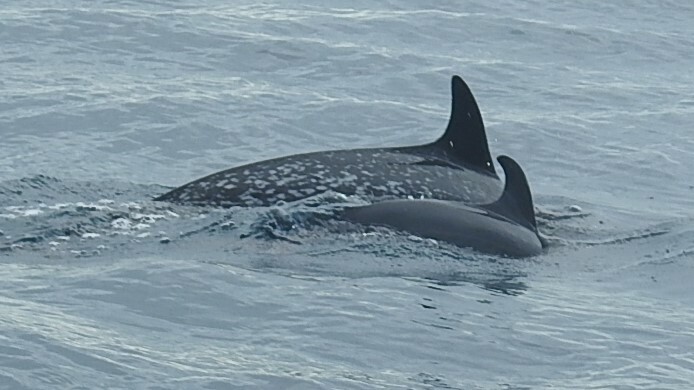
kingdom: Animalia
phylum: Chordata
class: Mammalia
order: Cetacea
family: Delphinidae
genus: Stenella
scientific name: Stenella attenuata
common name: Pantropical spotted dolphin
